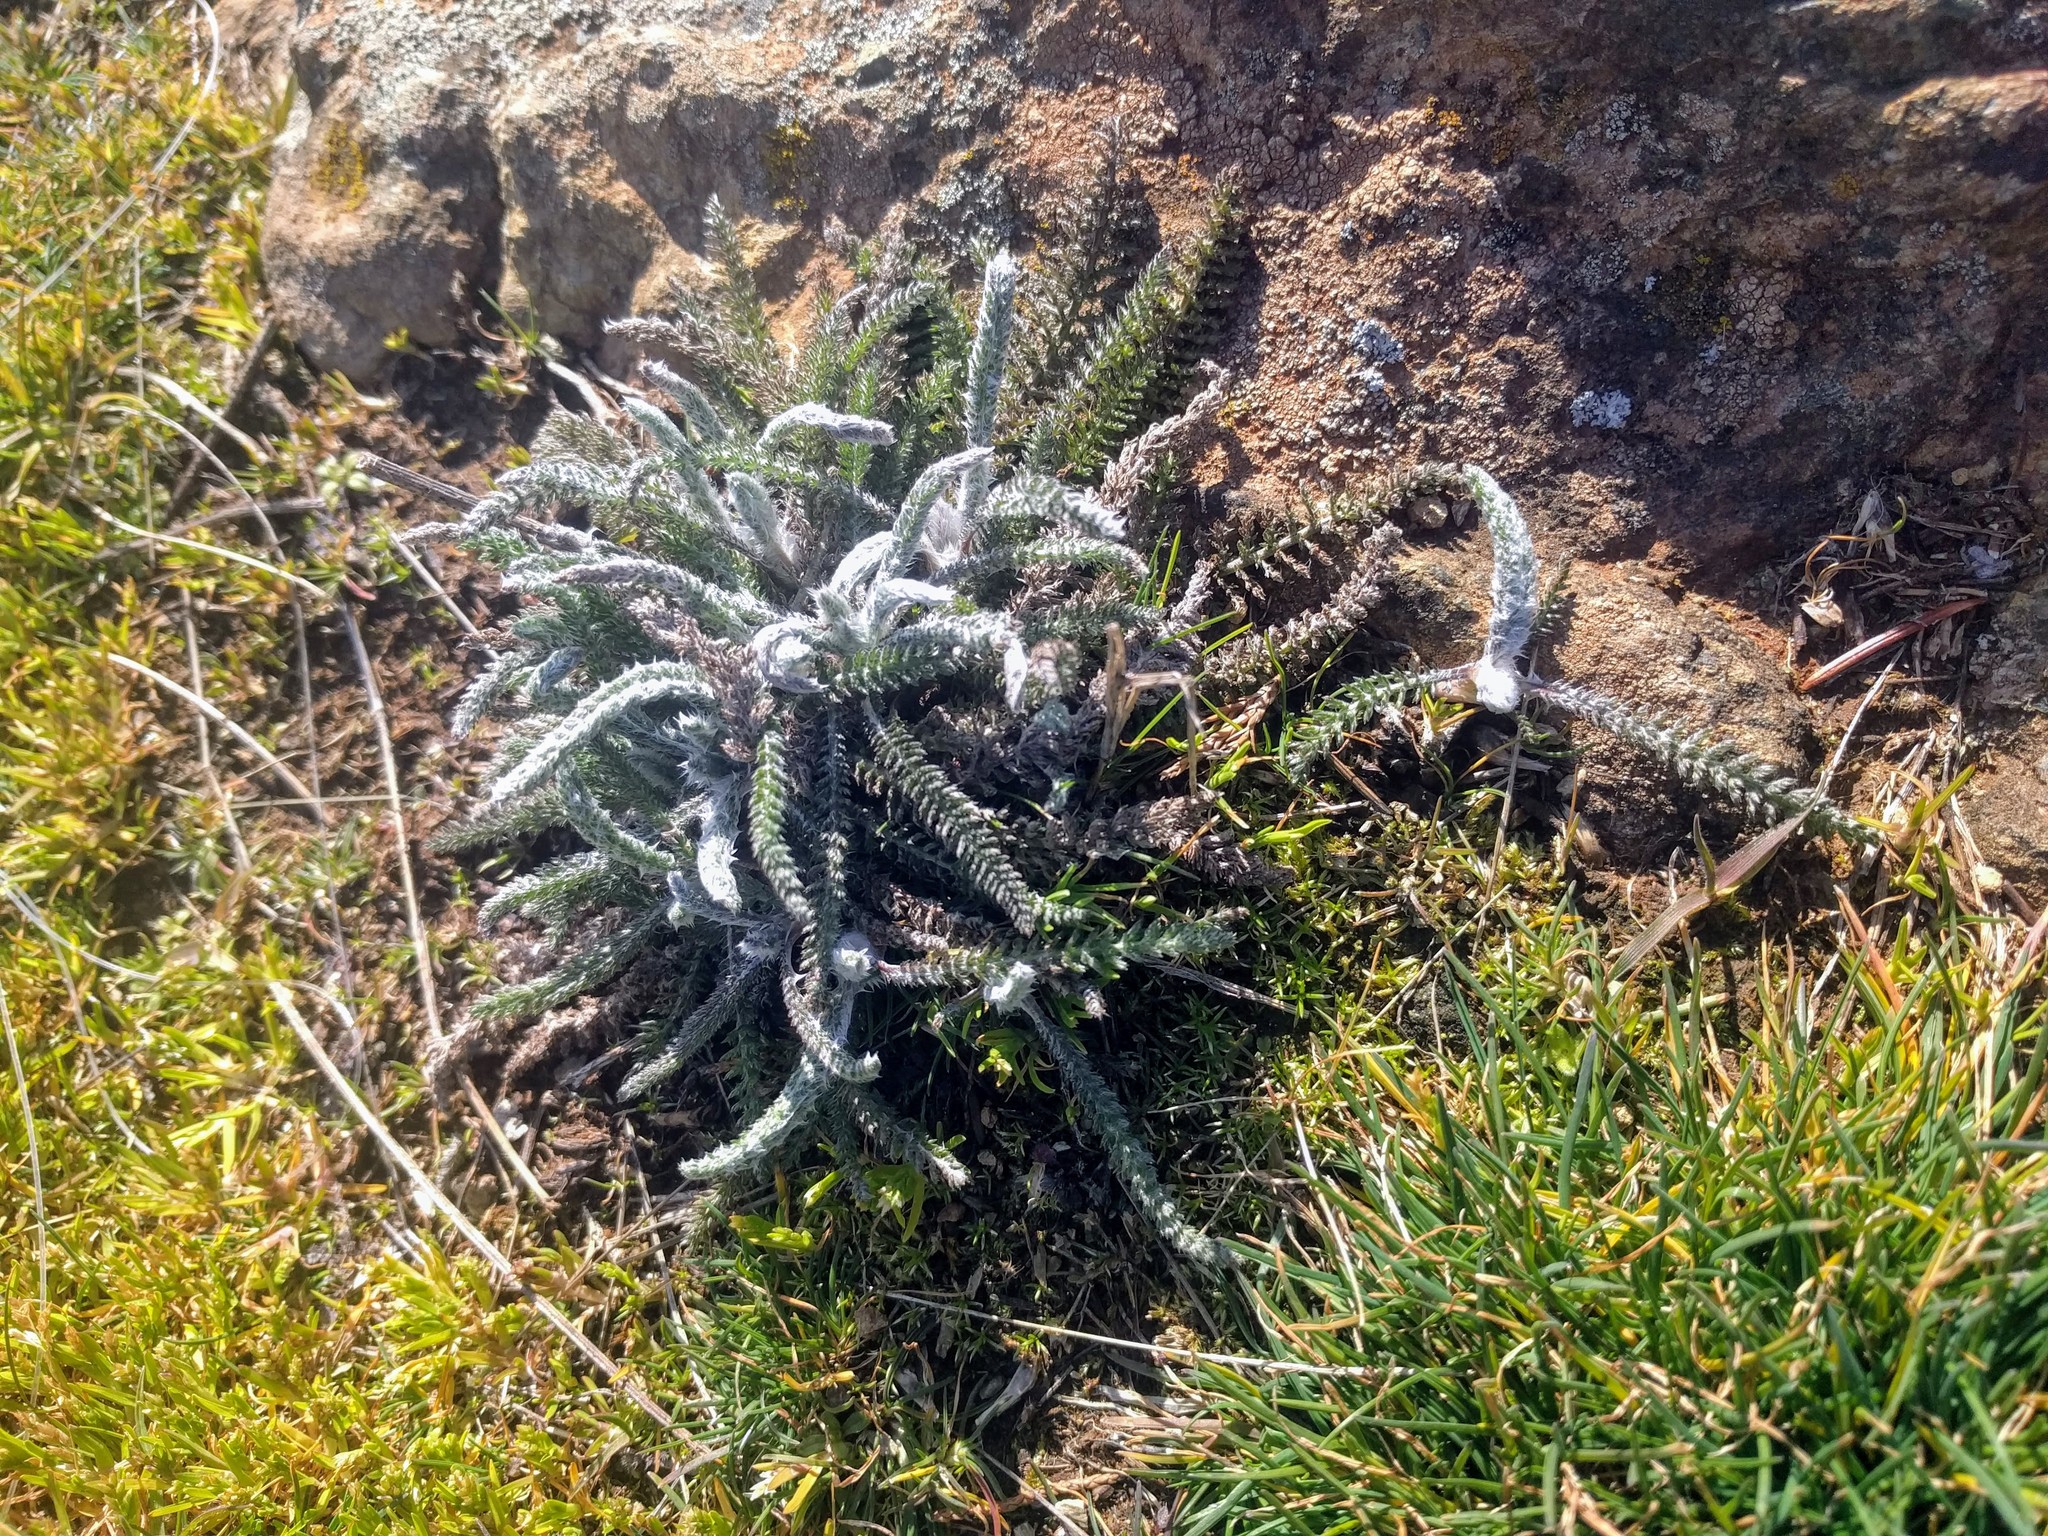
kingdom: Plantae
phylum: Tracheophyta
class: Magnoliopsida
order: Asterales
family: Asteraceae
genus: Achillea
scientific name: Achillea millefolium
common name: Yarrow
